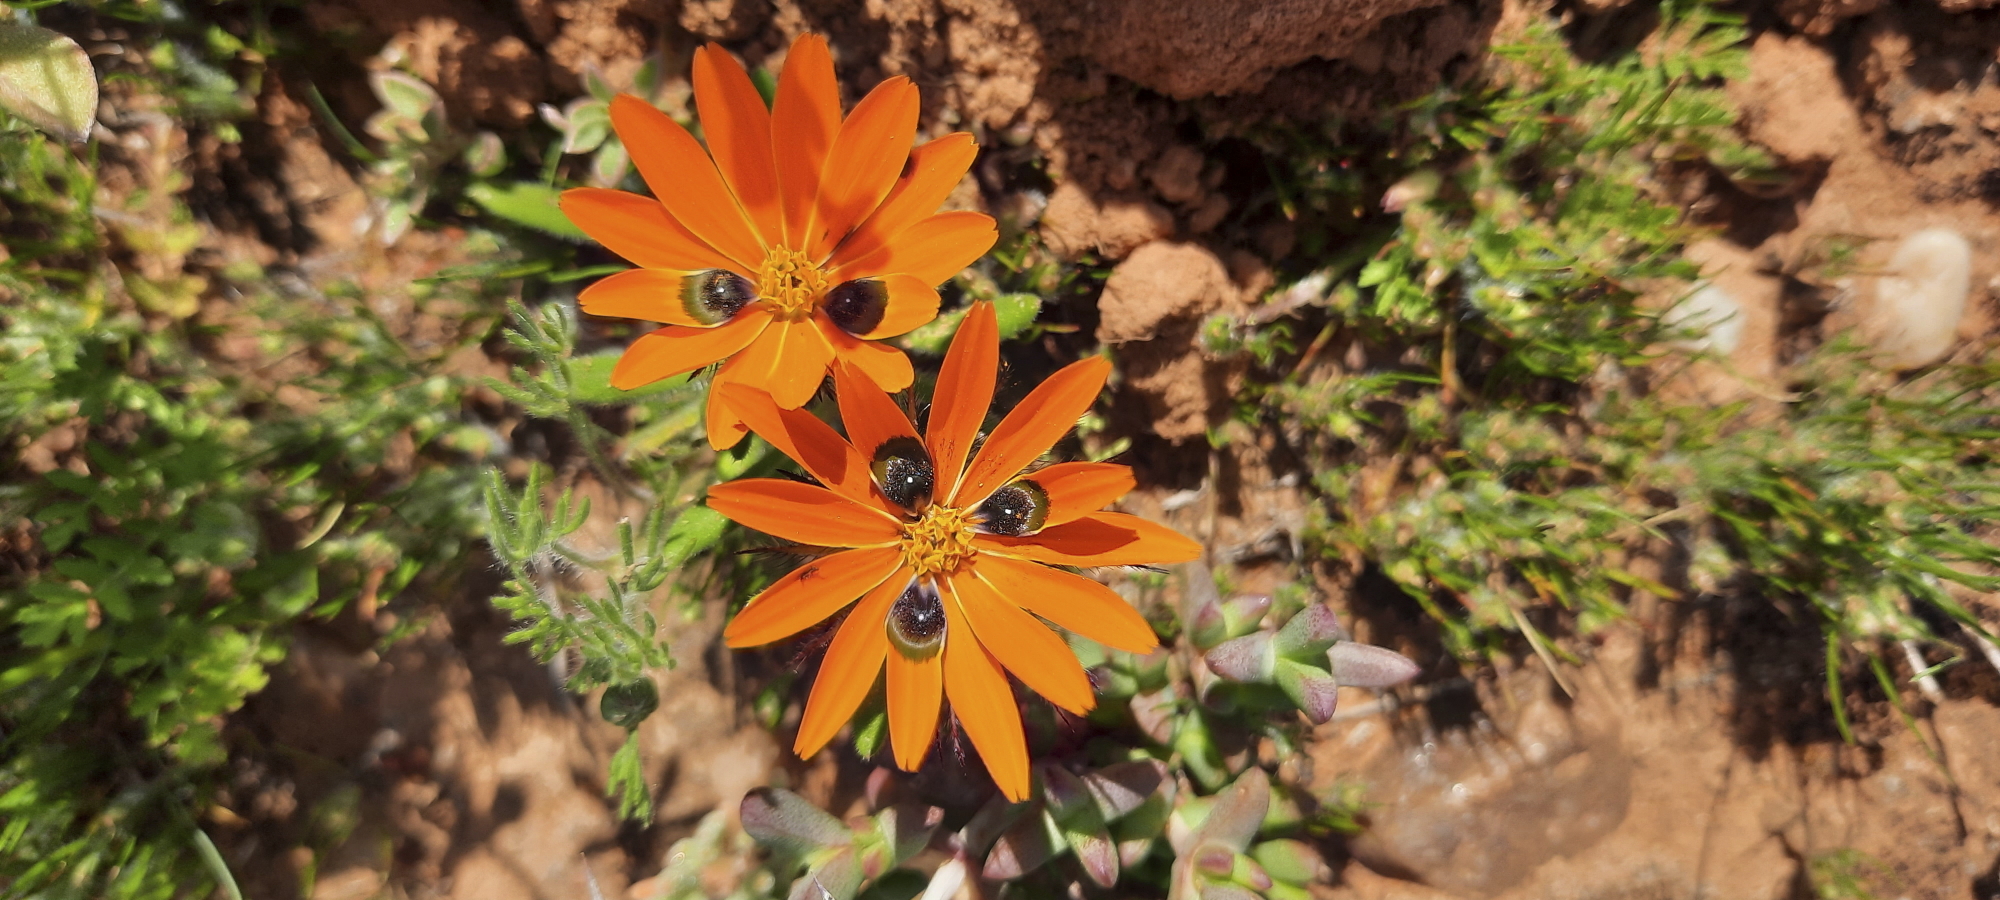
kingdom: Plantae
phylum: Tracheophyta
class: Magnoliopsida
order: Asterales
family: Asteraceae
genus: Gorteria
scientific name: Gorteria diffusa
